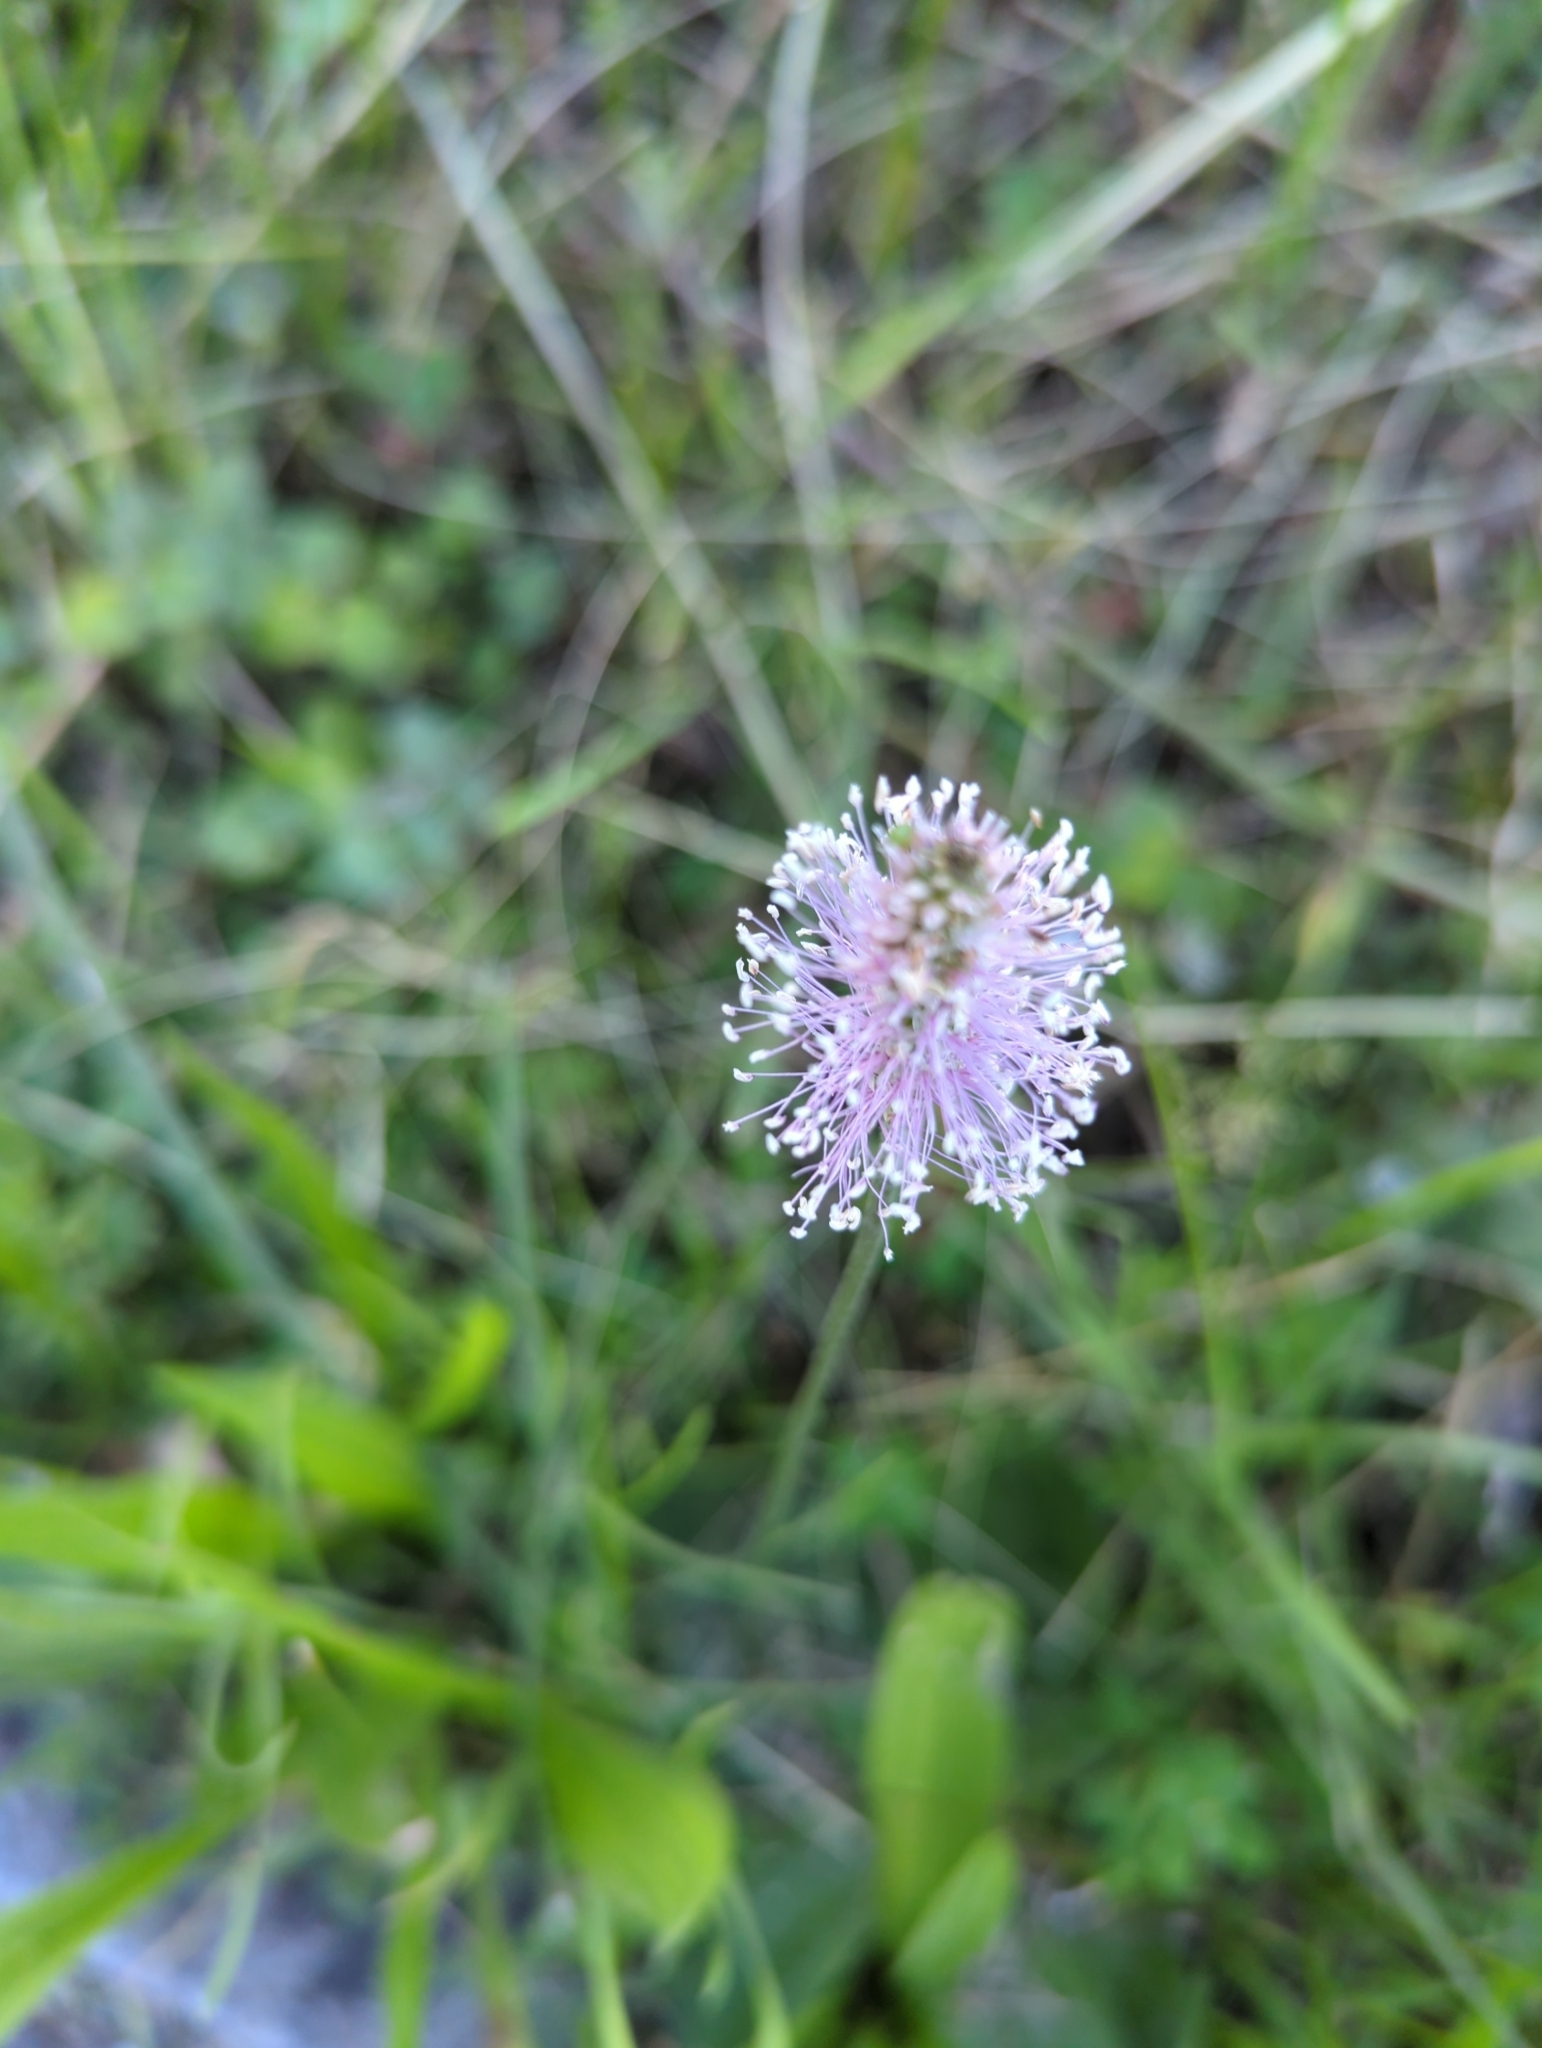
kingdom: Plantae
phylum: Tracheophyta
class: Magnoliopsida
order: Lamiales
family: Plantaginaceae
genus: Plantago
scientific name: Plantago media
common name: Hoary plantain
